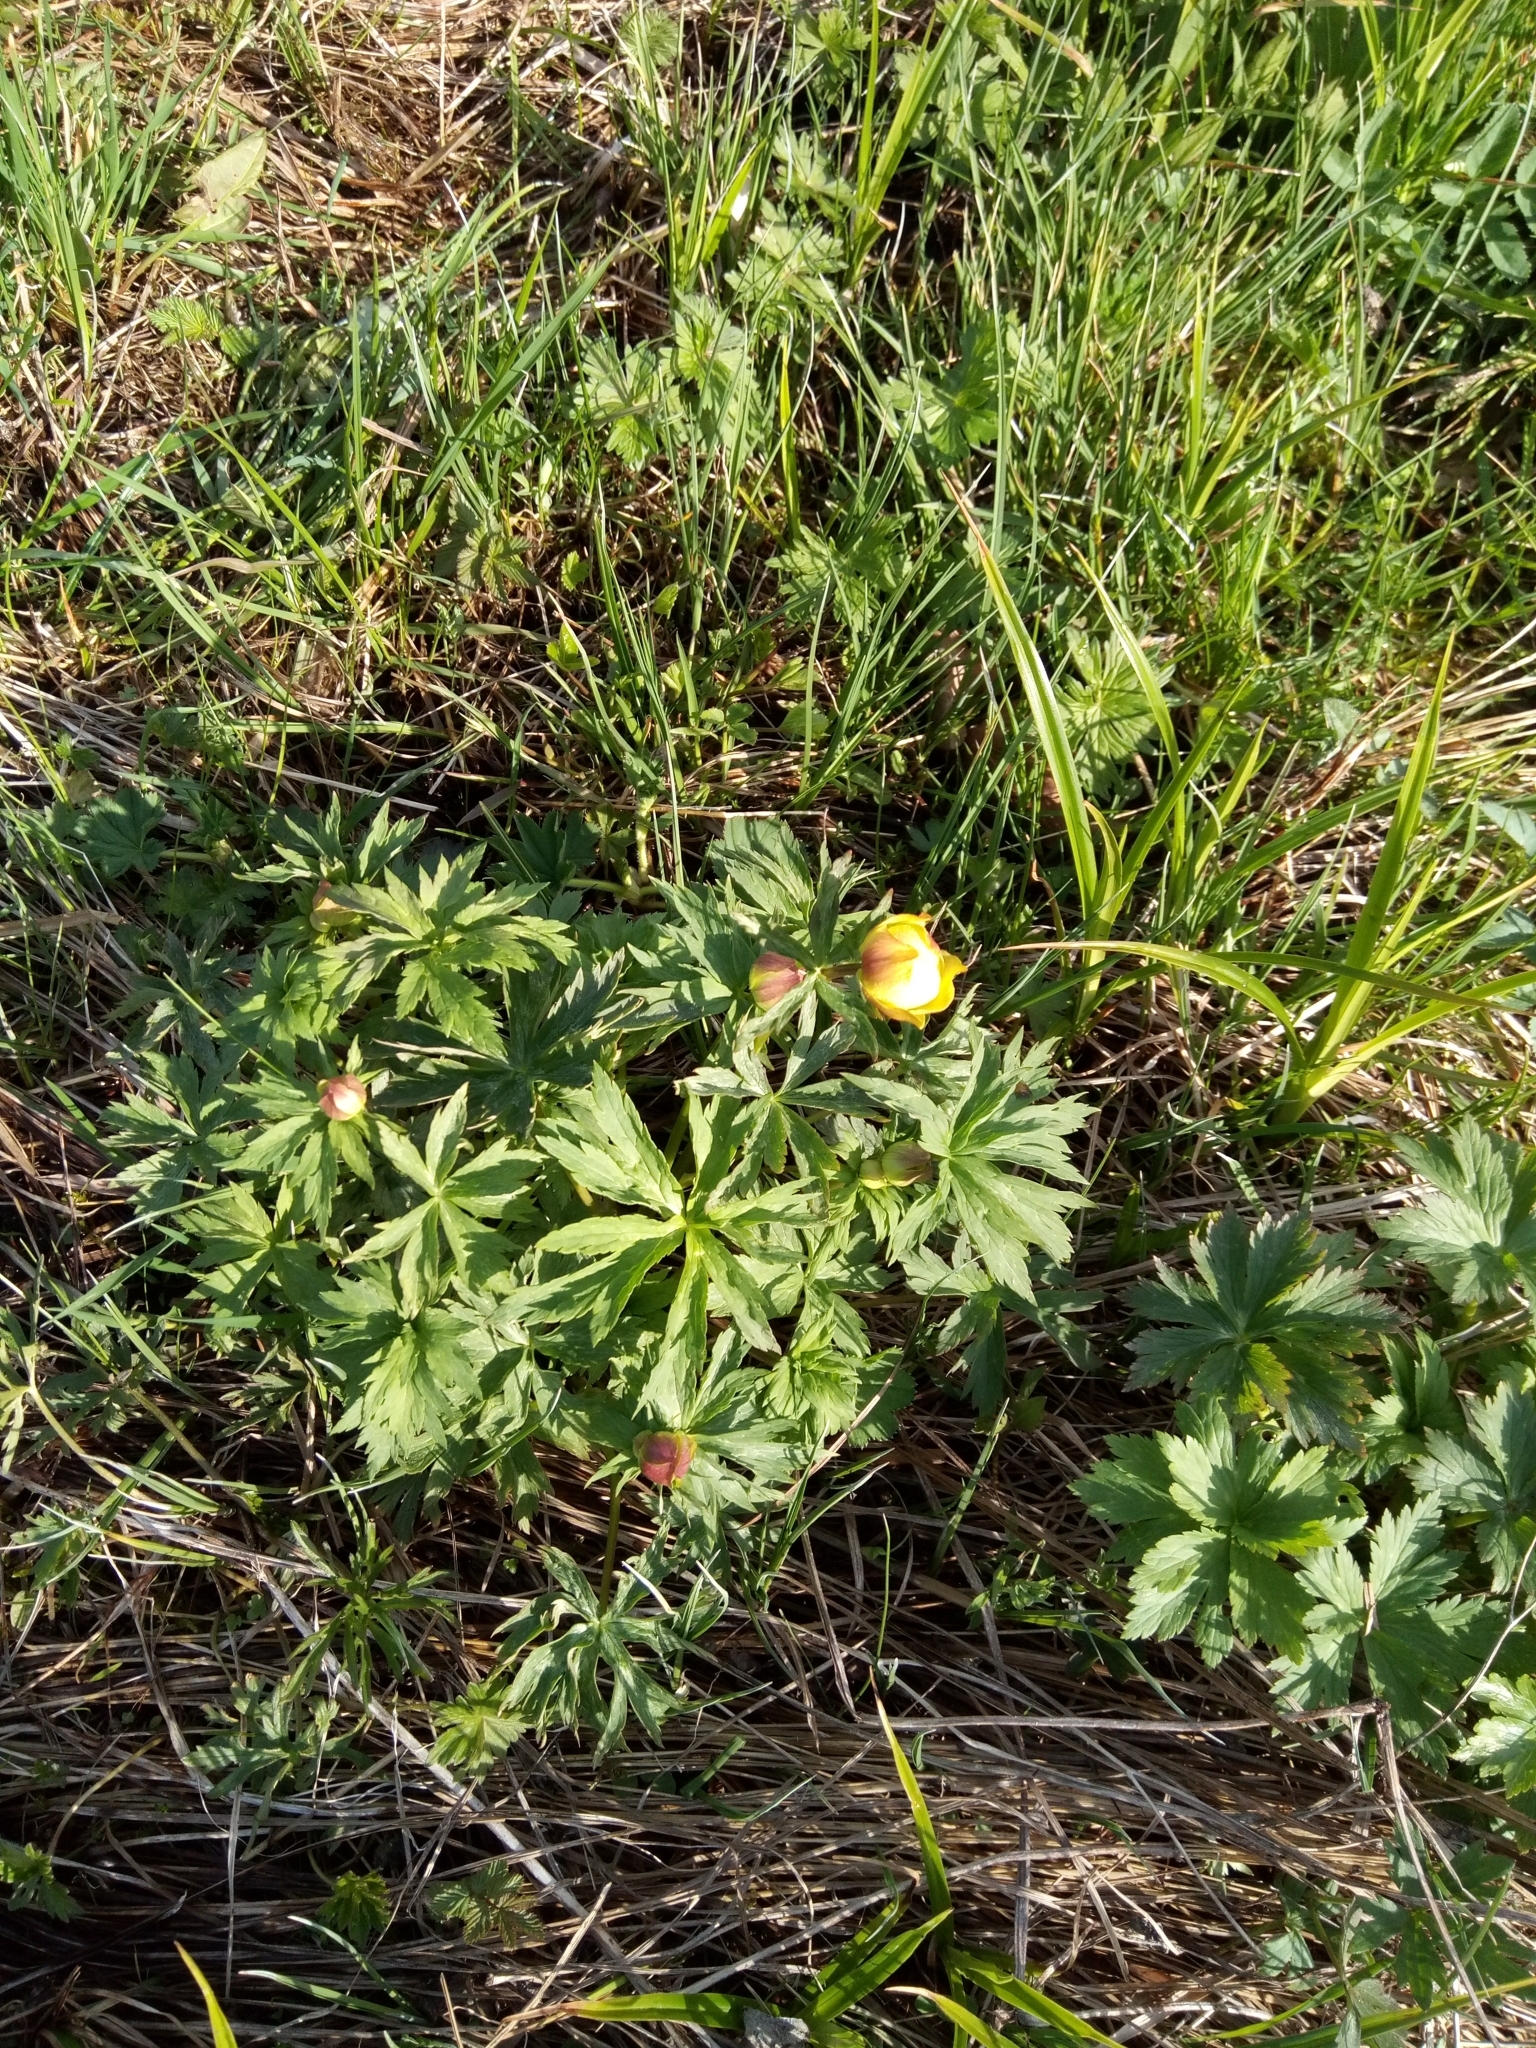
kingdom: Plantae
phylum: Tracheophyta
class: Magnoliopsida
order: Ranunculales
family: Ranunculaceae
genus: Trollius
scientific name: Trollius europaeus
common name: European globeflower
